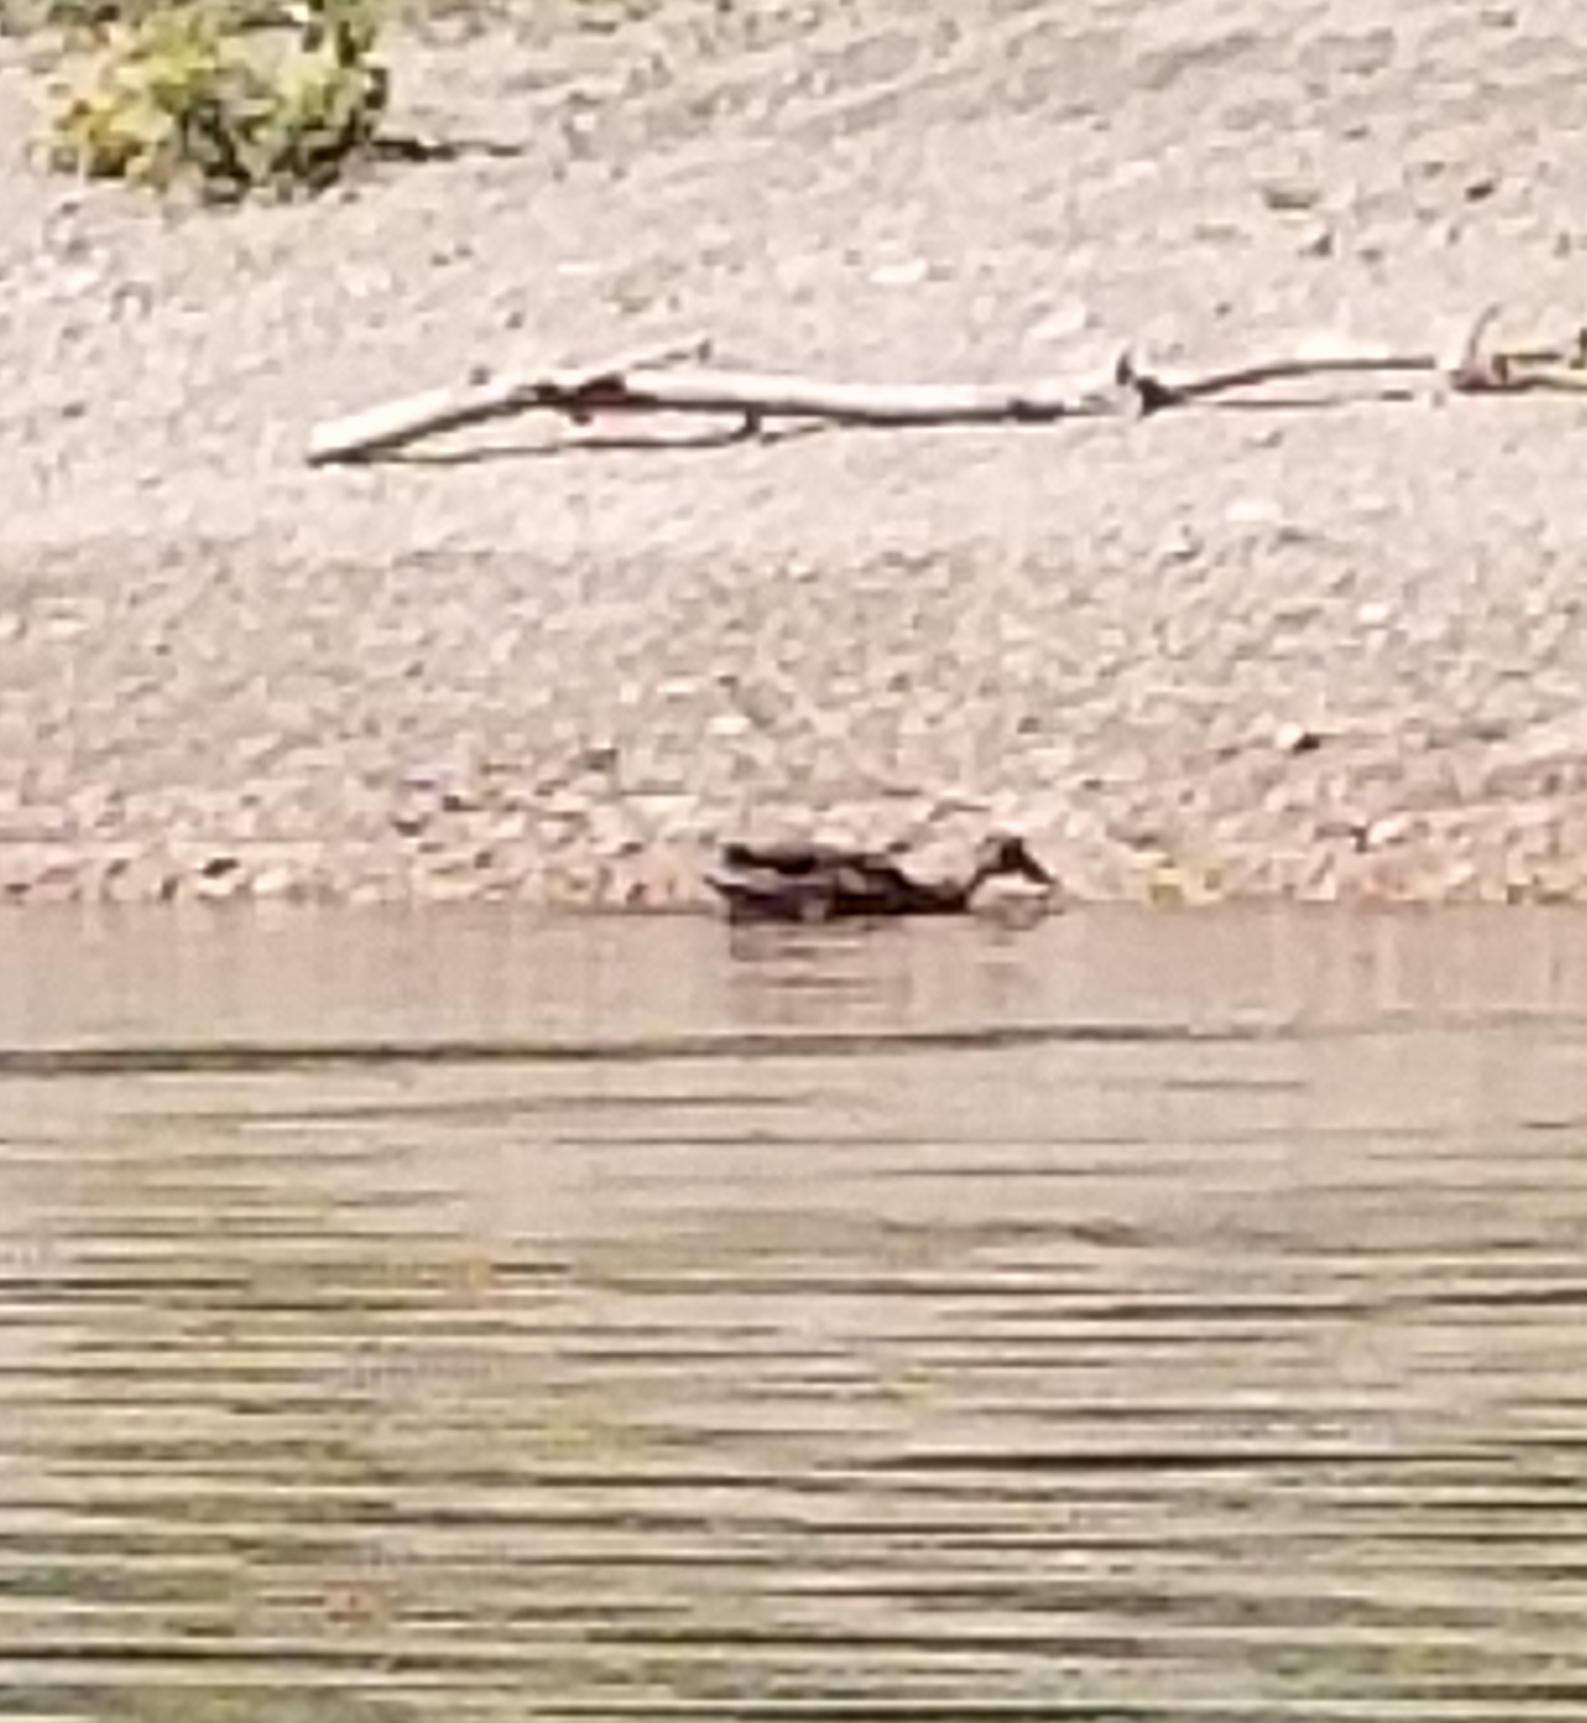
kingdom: Animalia
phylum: Chordata
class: Aves
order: Anseriformes
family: Anatidae
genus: Anas
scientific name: Anas platyrhynchos
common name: Mallard
